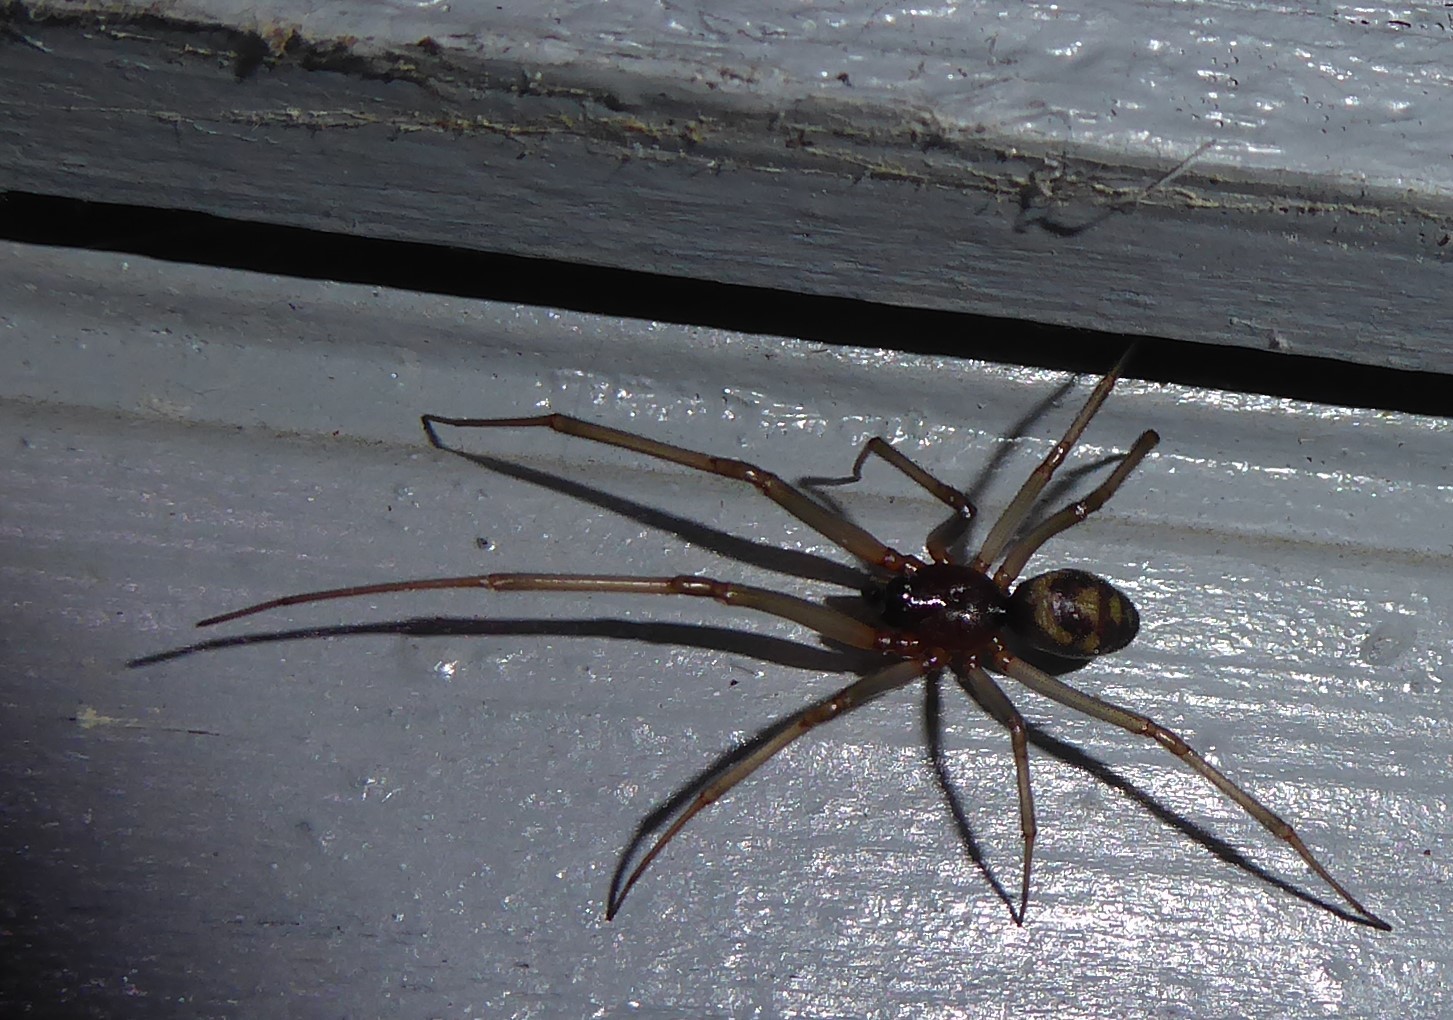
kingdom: Animalia
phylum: Arthropoda
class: Arachnida
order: Araneae
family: Theridiidae
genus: Steatoda
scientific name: Steatoda grossa
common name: False black widow
